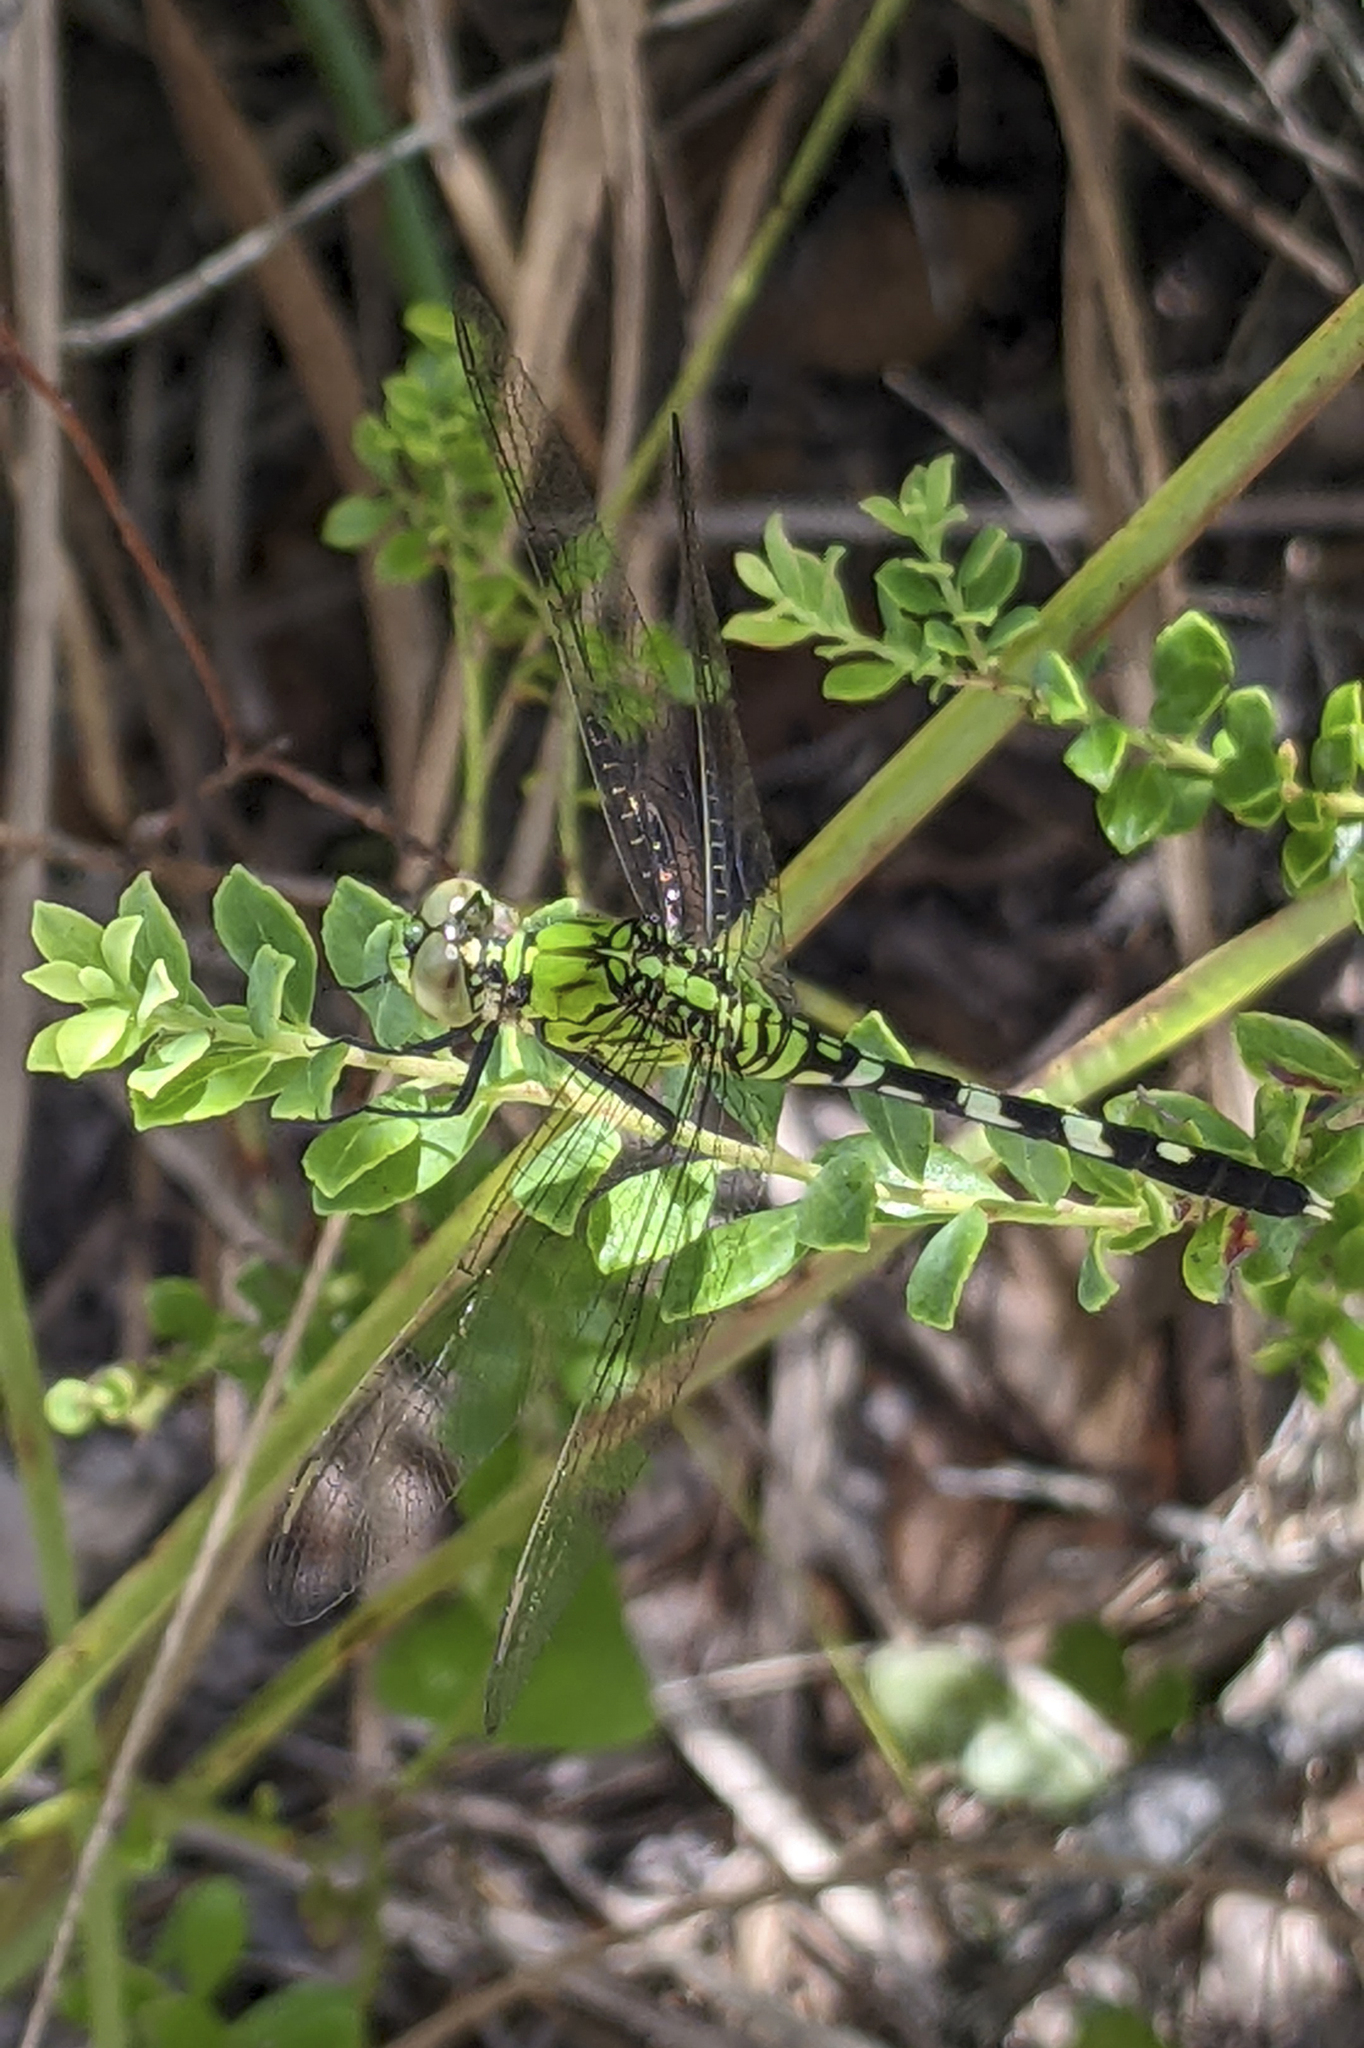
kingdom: Animalia
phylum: Arthropoda
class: Insecta
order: Odonata
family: Libellulidae
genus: Erythemis
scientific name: Erythemis simplicicollis
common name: Eastern pondhawk
